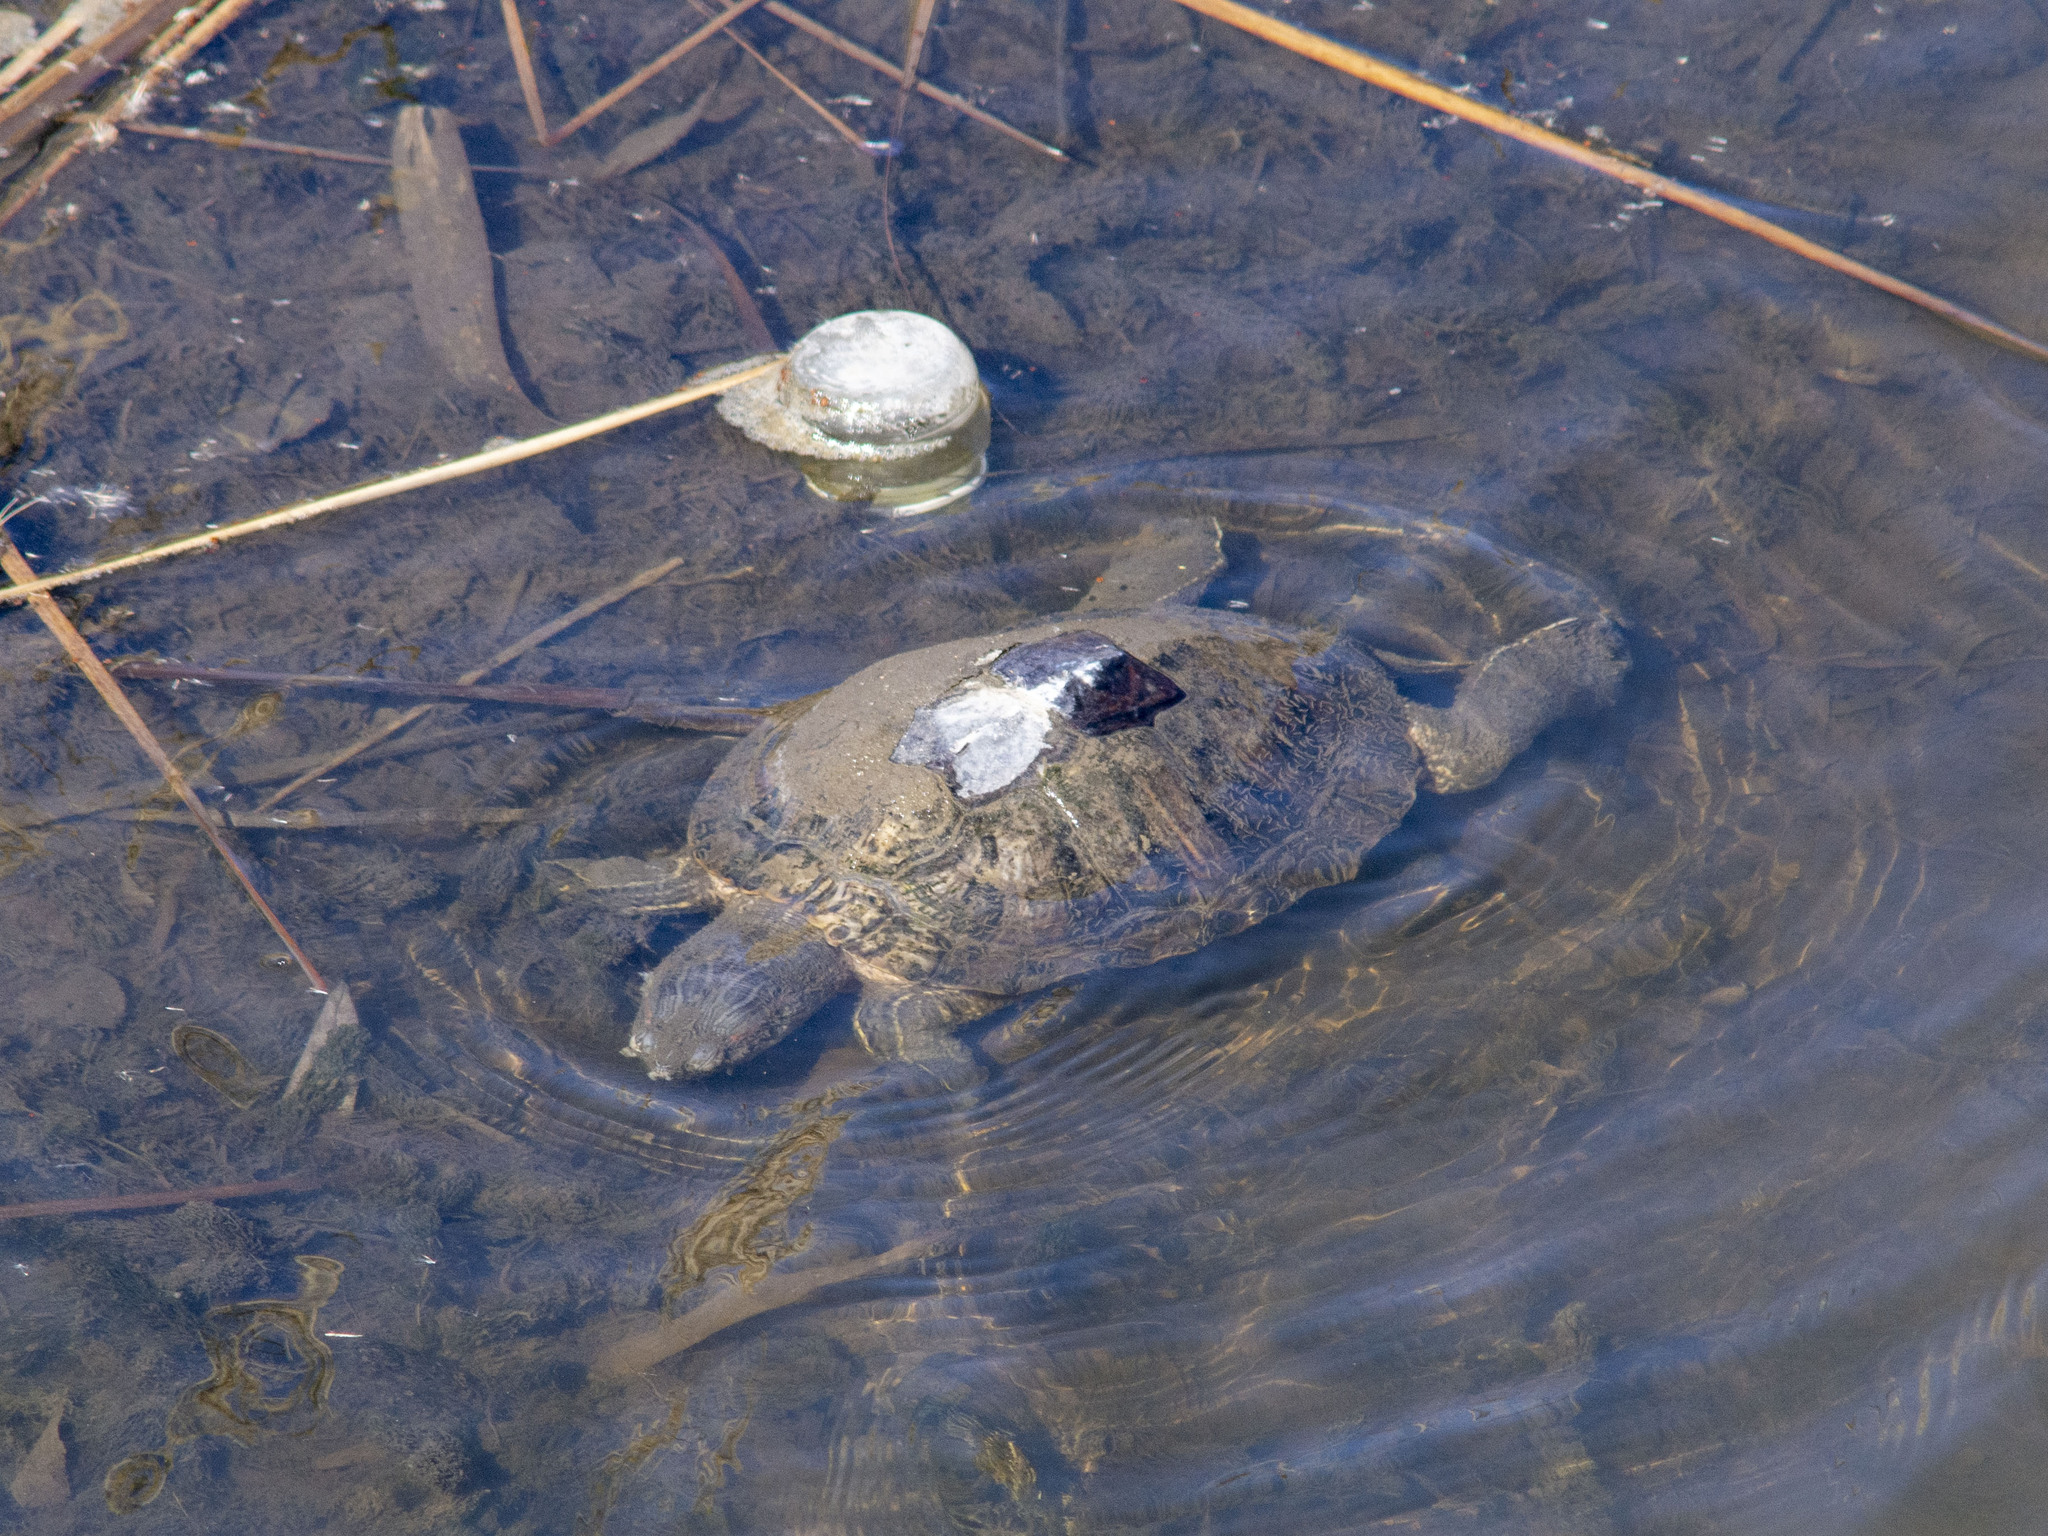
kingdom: Animalia
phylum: Chordata
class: Testudines
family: Emydidae
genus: Trachemys
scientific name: Trachemys scripta
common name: Slider
